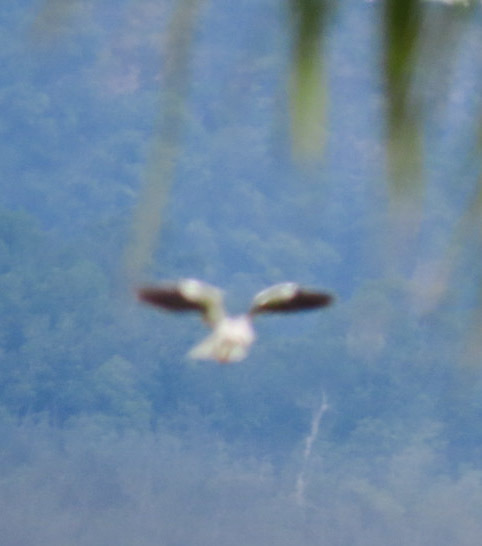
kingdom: Animalia
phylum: Chordata
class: Aves
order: Accipitriformes
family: Accipitridae
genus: Elanus
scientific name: Elanus caeruleus
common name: Black-winged kite
